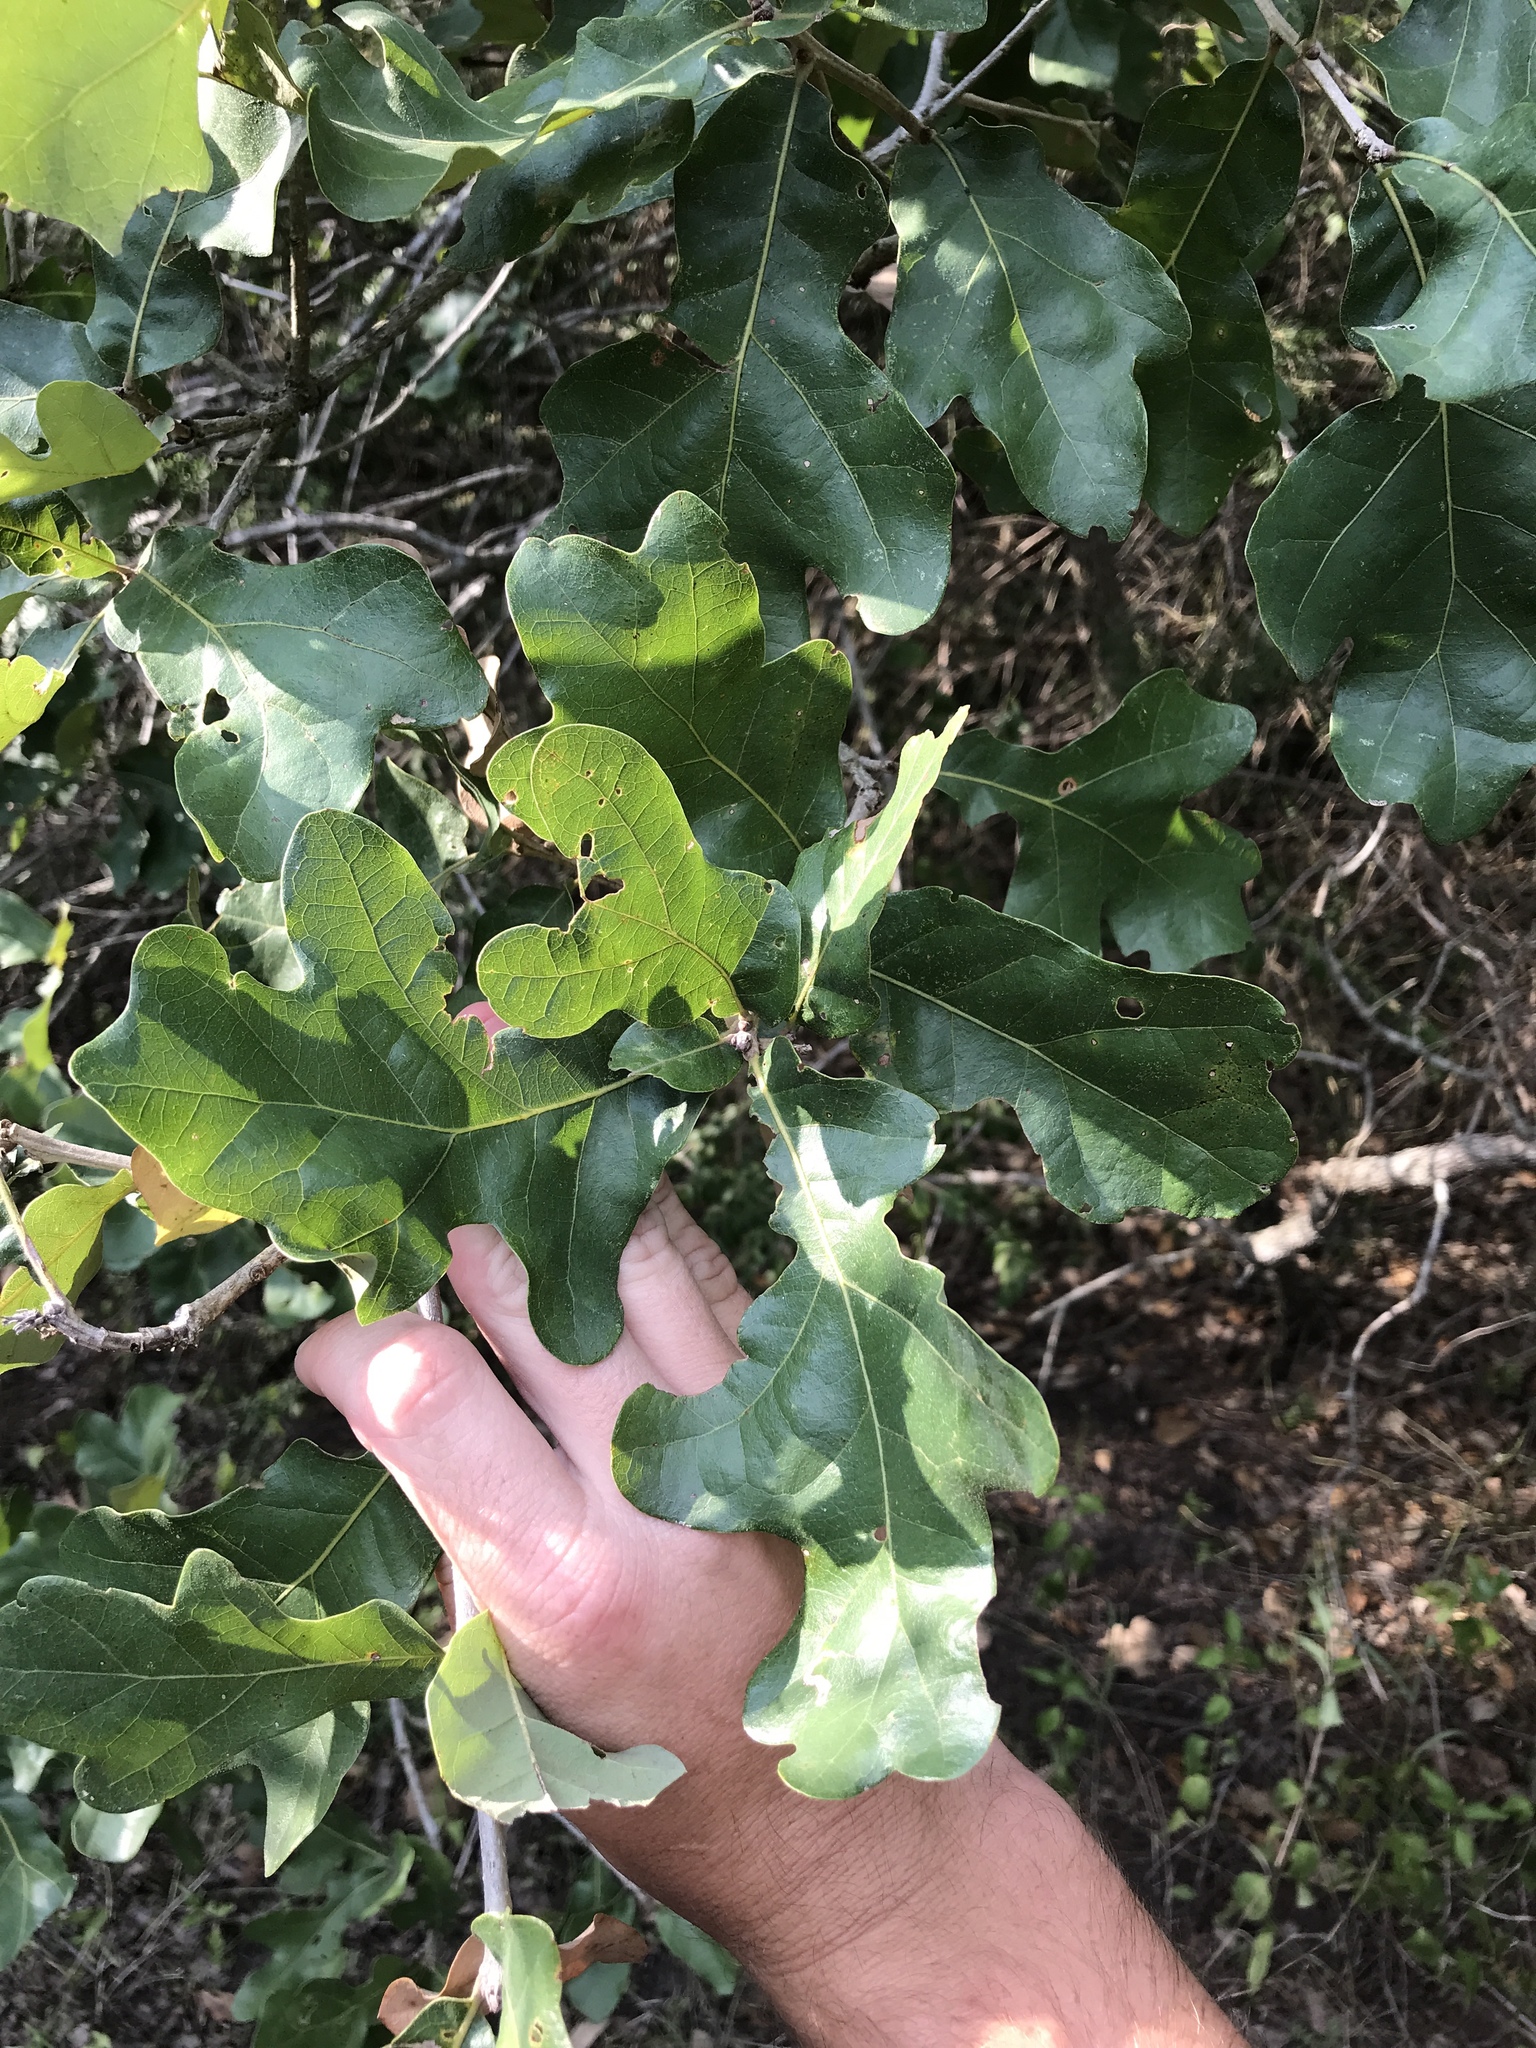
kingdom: Plantae
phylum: Tracheophyta
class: Magnoliopsida
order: Fagales
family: Fagaceae
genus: Quercus
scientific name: Quercus stellata
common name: Post oak
